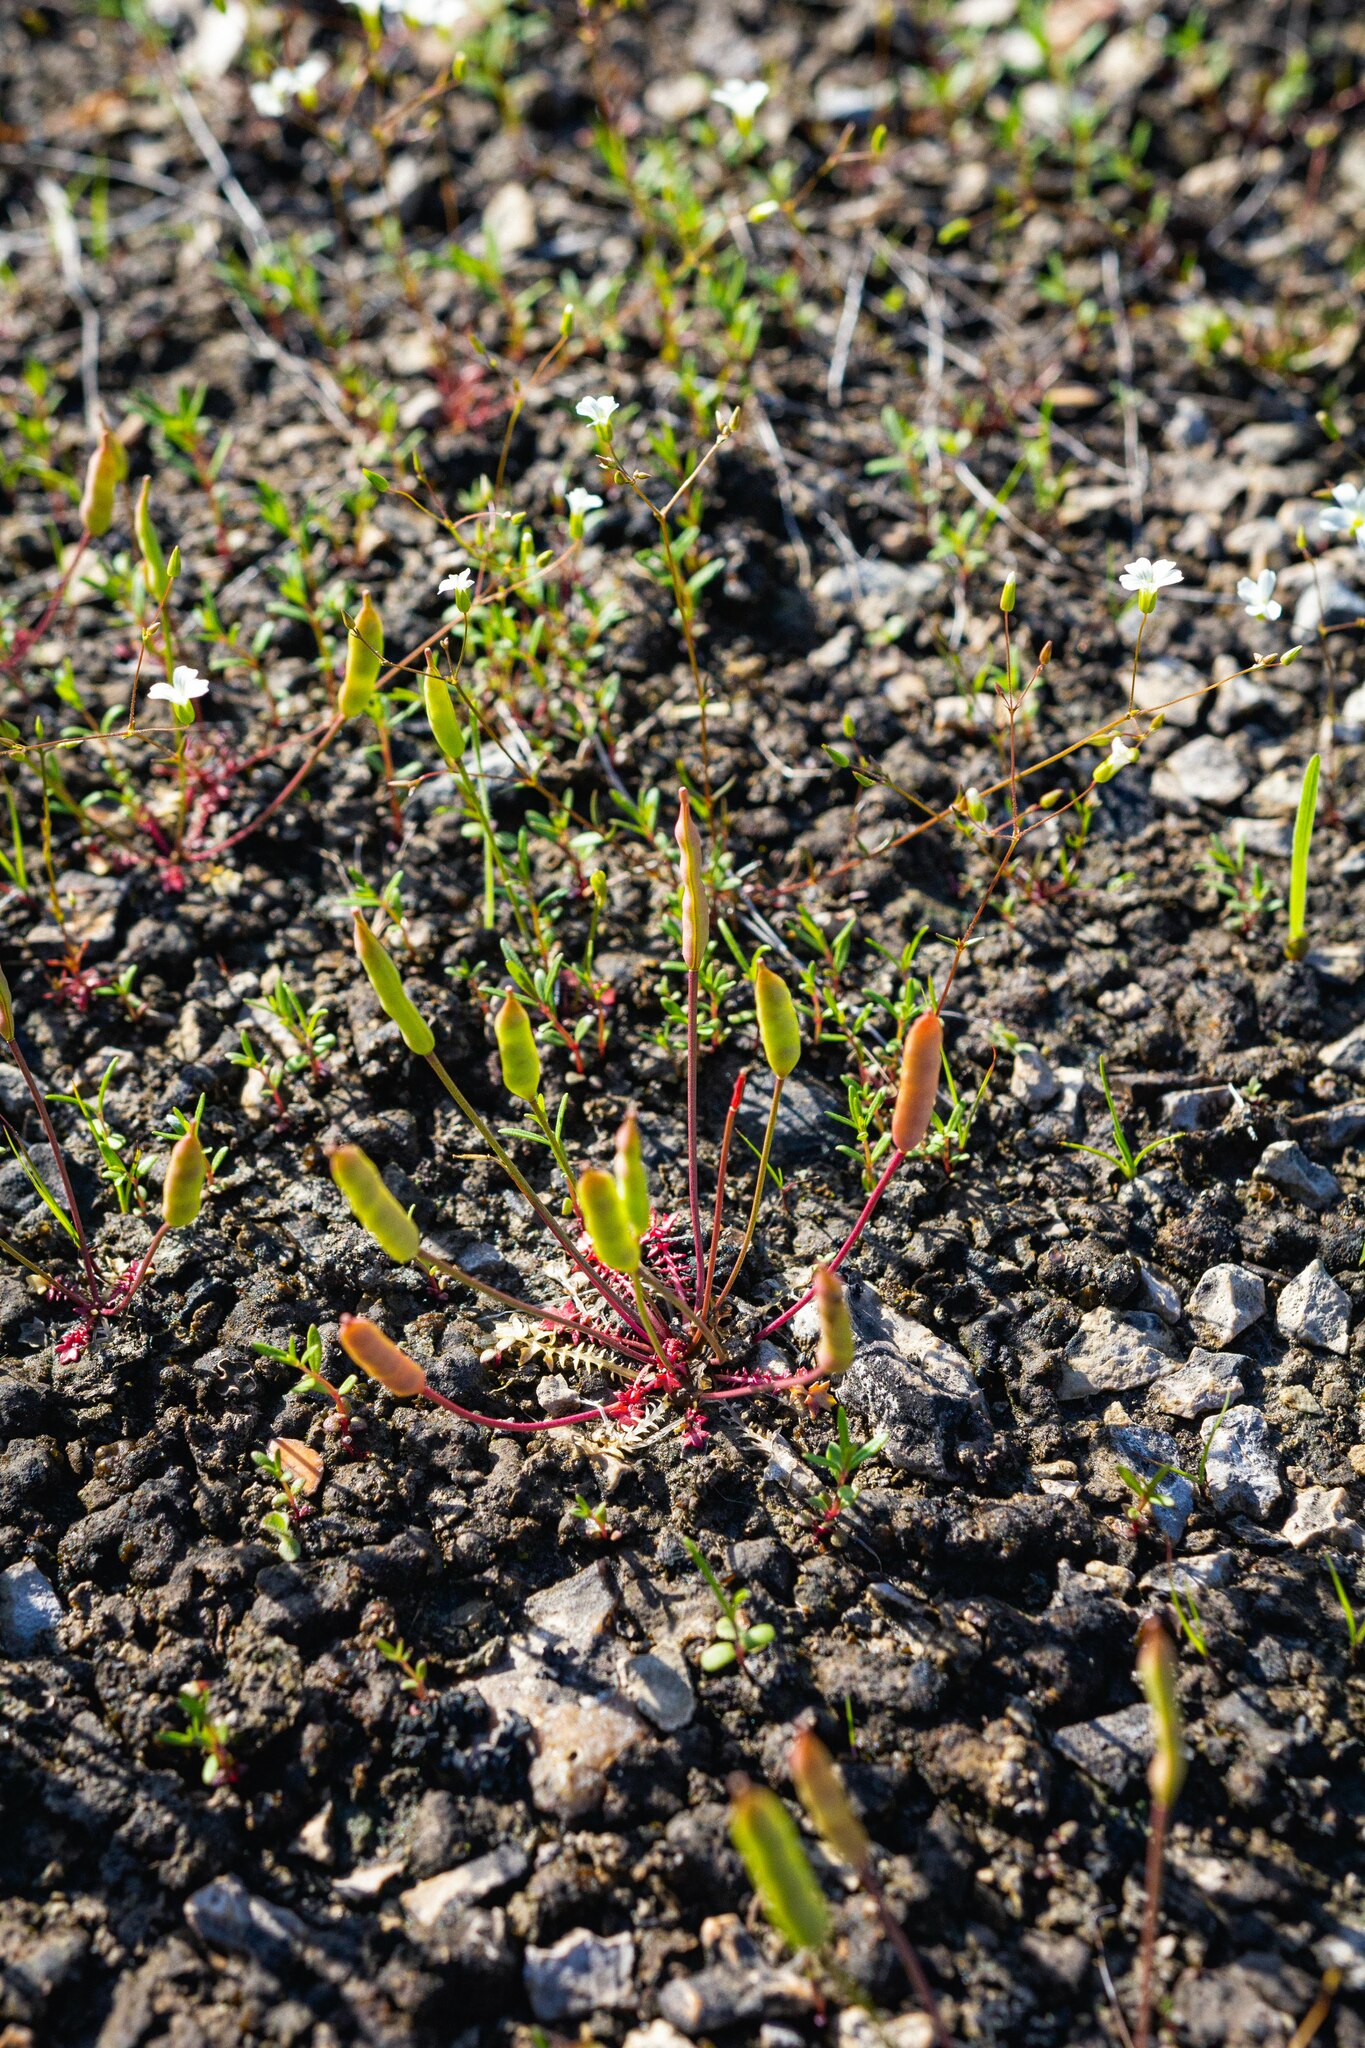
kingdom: Plantae
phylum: Tracheophyta
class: Magnoliopsida
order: Brassicales
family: Brassicaceae
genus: Leavenworthia
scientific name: Leavenworthia uniflora
